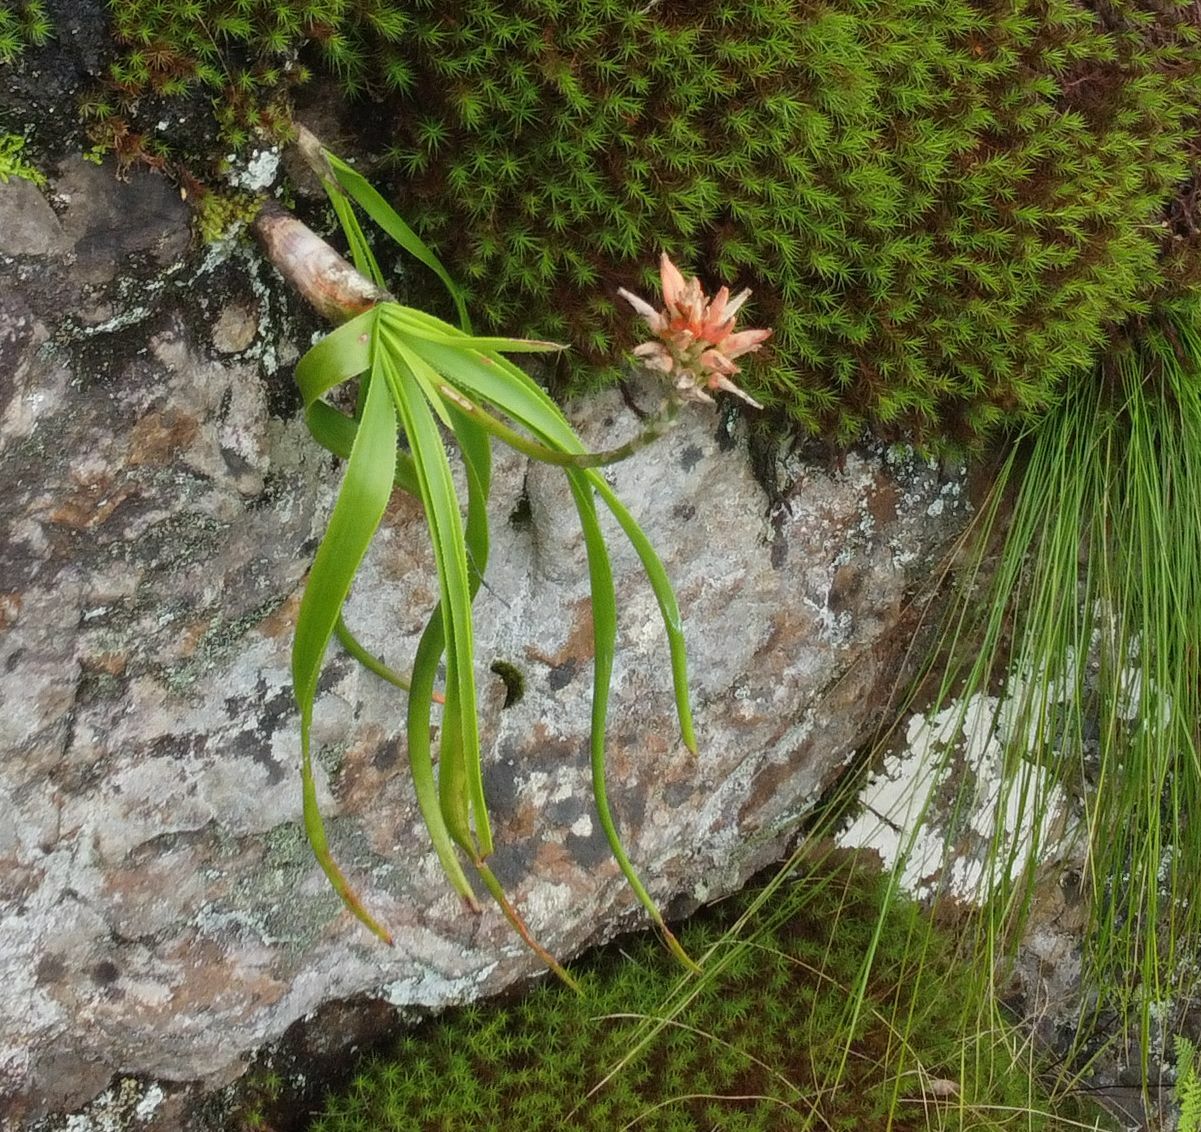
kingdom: Plantae
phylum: Tracheophyta
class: Liliopsida
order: Asparagales
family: Asphodelaceae
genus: Aloe
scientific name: Aloe condyae
